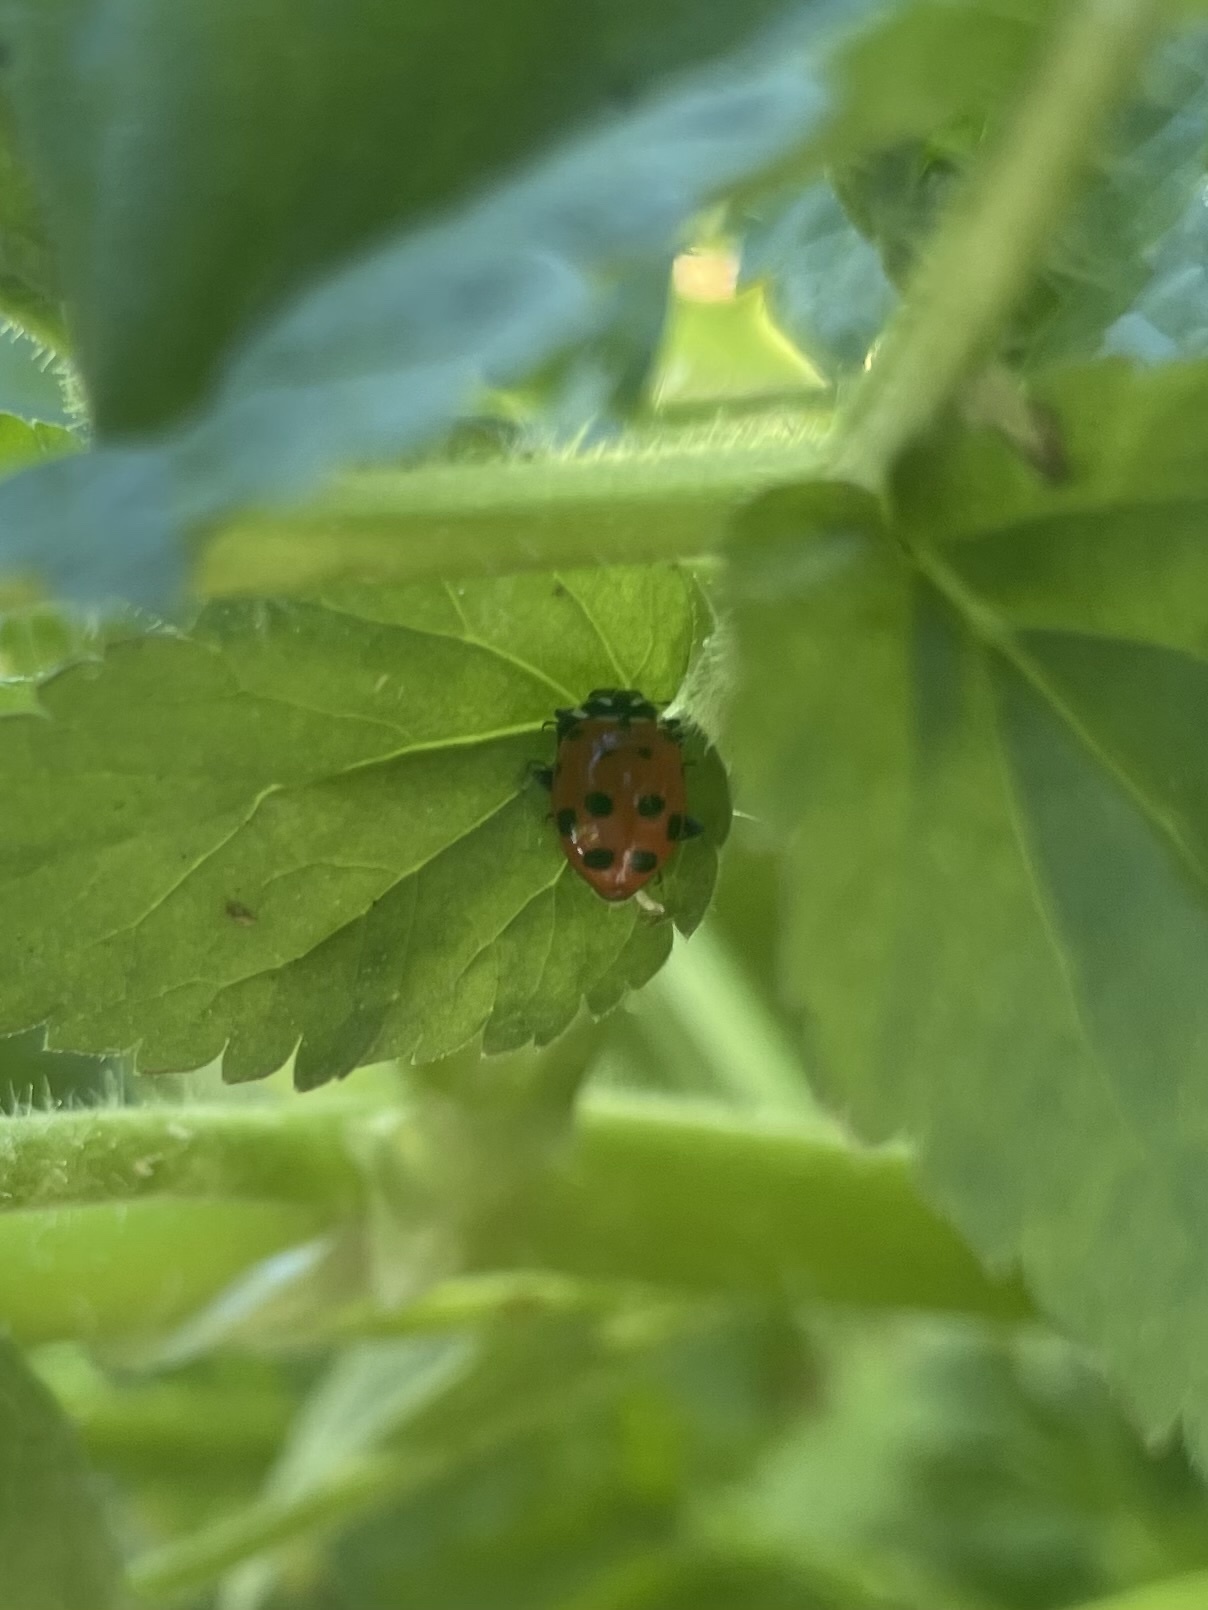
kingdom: Animalia
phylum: Arthropoda
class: Insecta
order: Coleoptera
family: Coccinellidae
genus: Hippodamia
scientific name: Hippodamia convergens
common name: Convergent lady beetle
